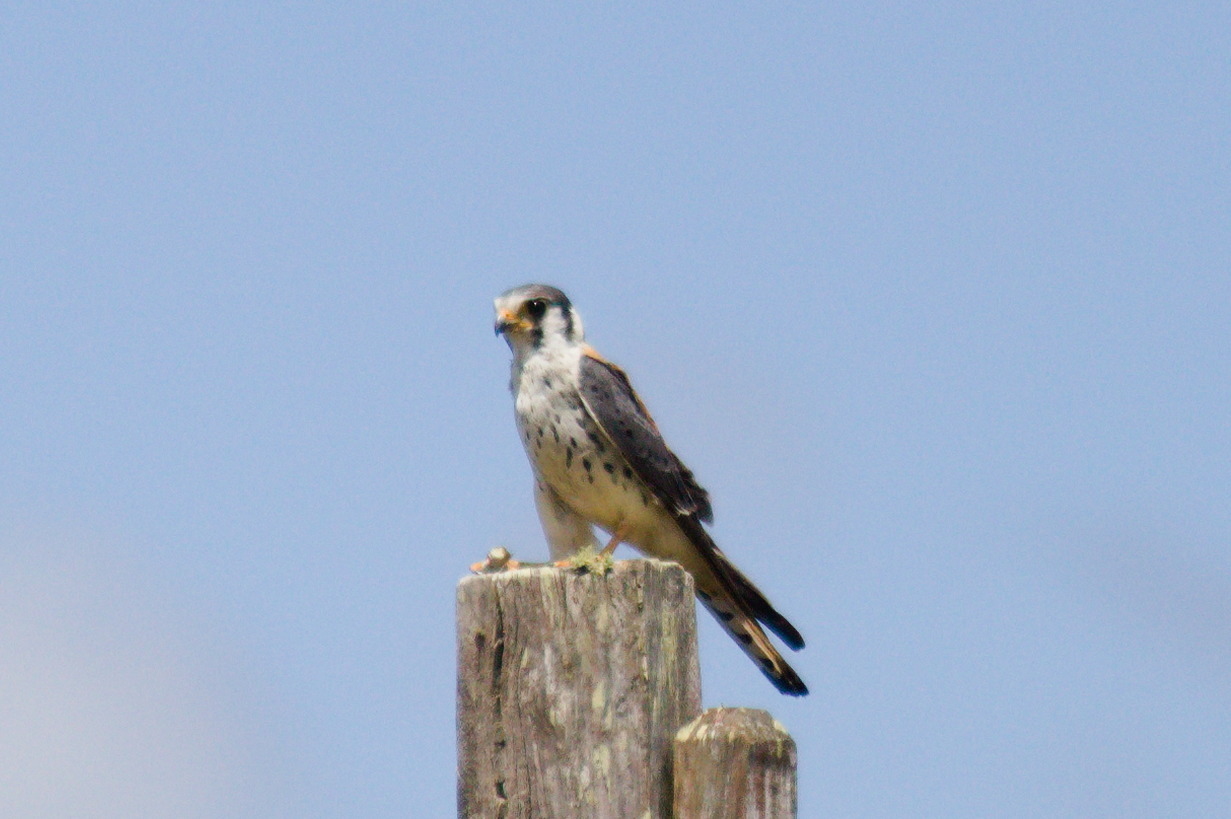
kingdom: Animalia
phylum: Chordata
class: Aves
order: Falconiformes
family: Falconidae
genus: Falco
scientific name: Falco sparverius
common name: American kestrel
